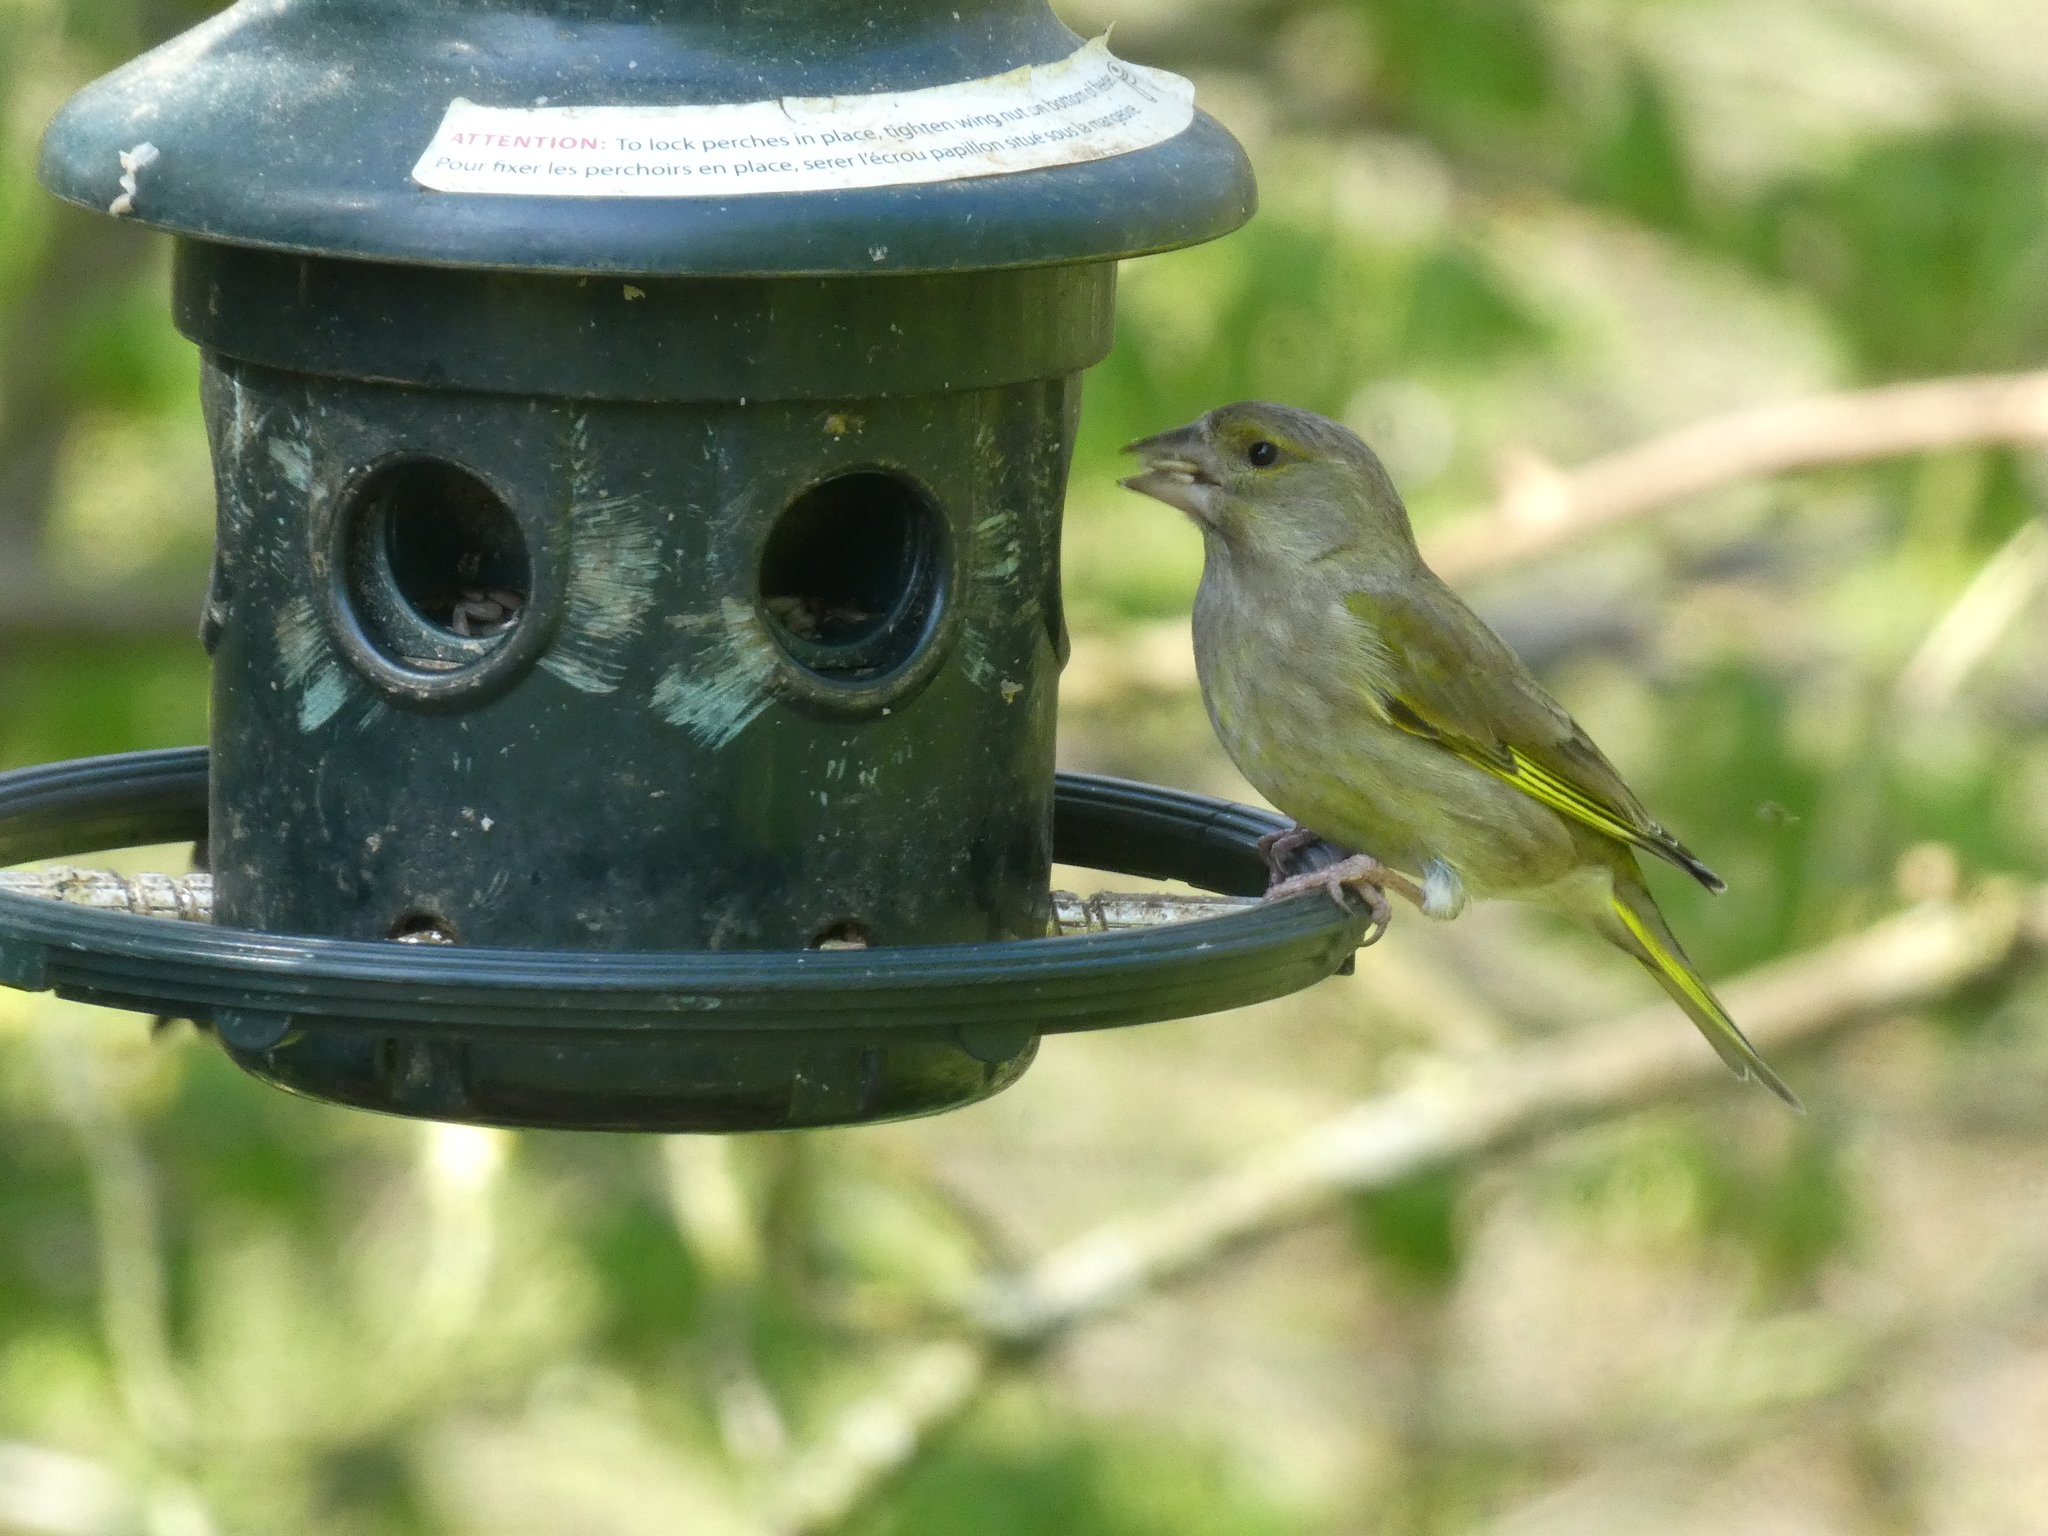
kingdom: Plantae
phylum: Tracheophyta
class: Liliopsida
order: Poales
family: Poaceae
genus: Chloris
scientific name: Chloris chloris
